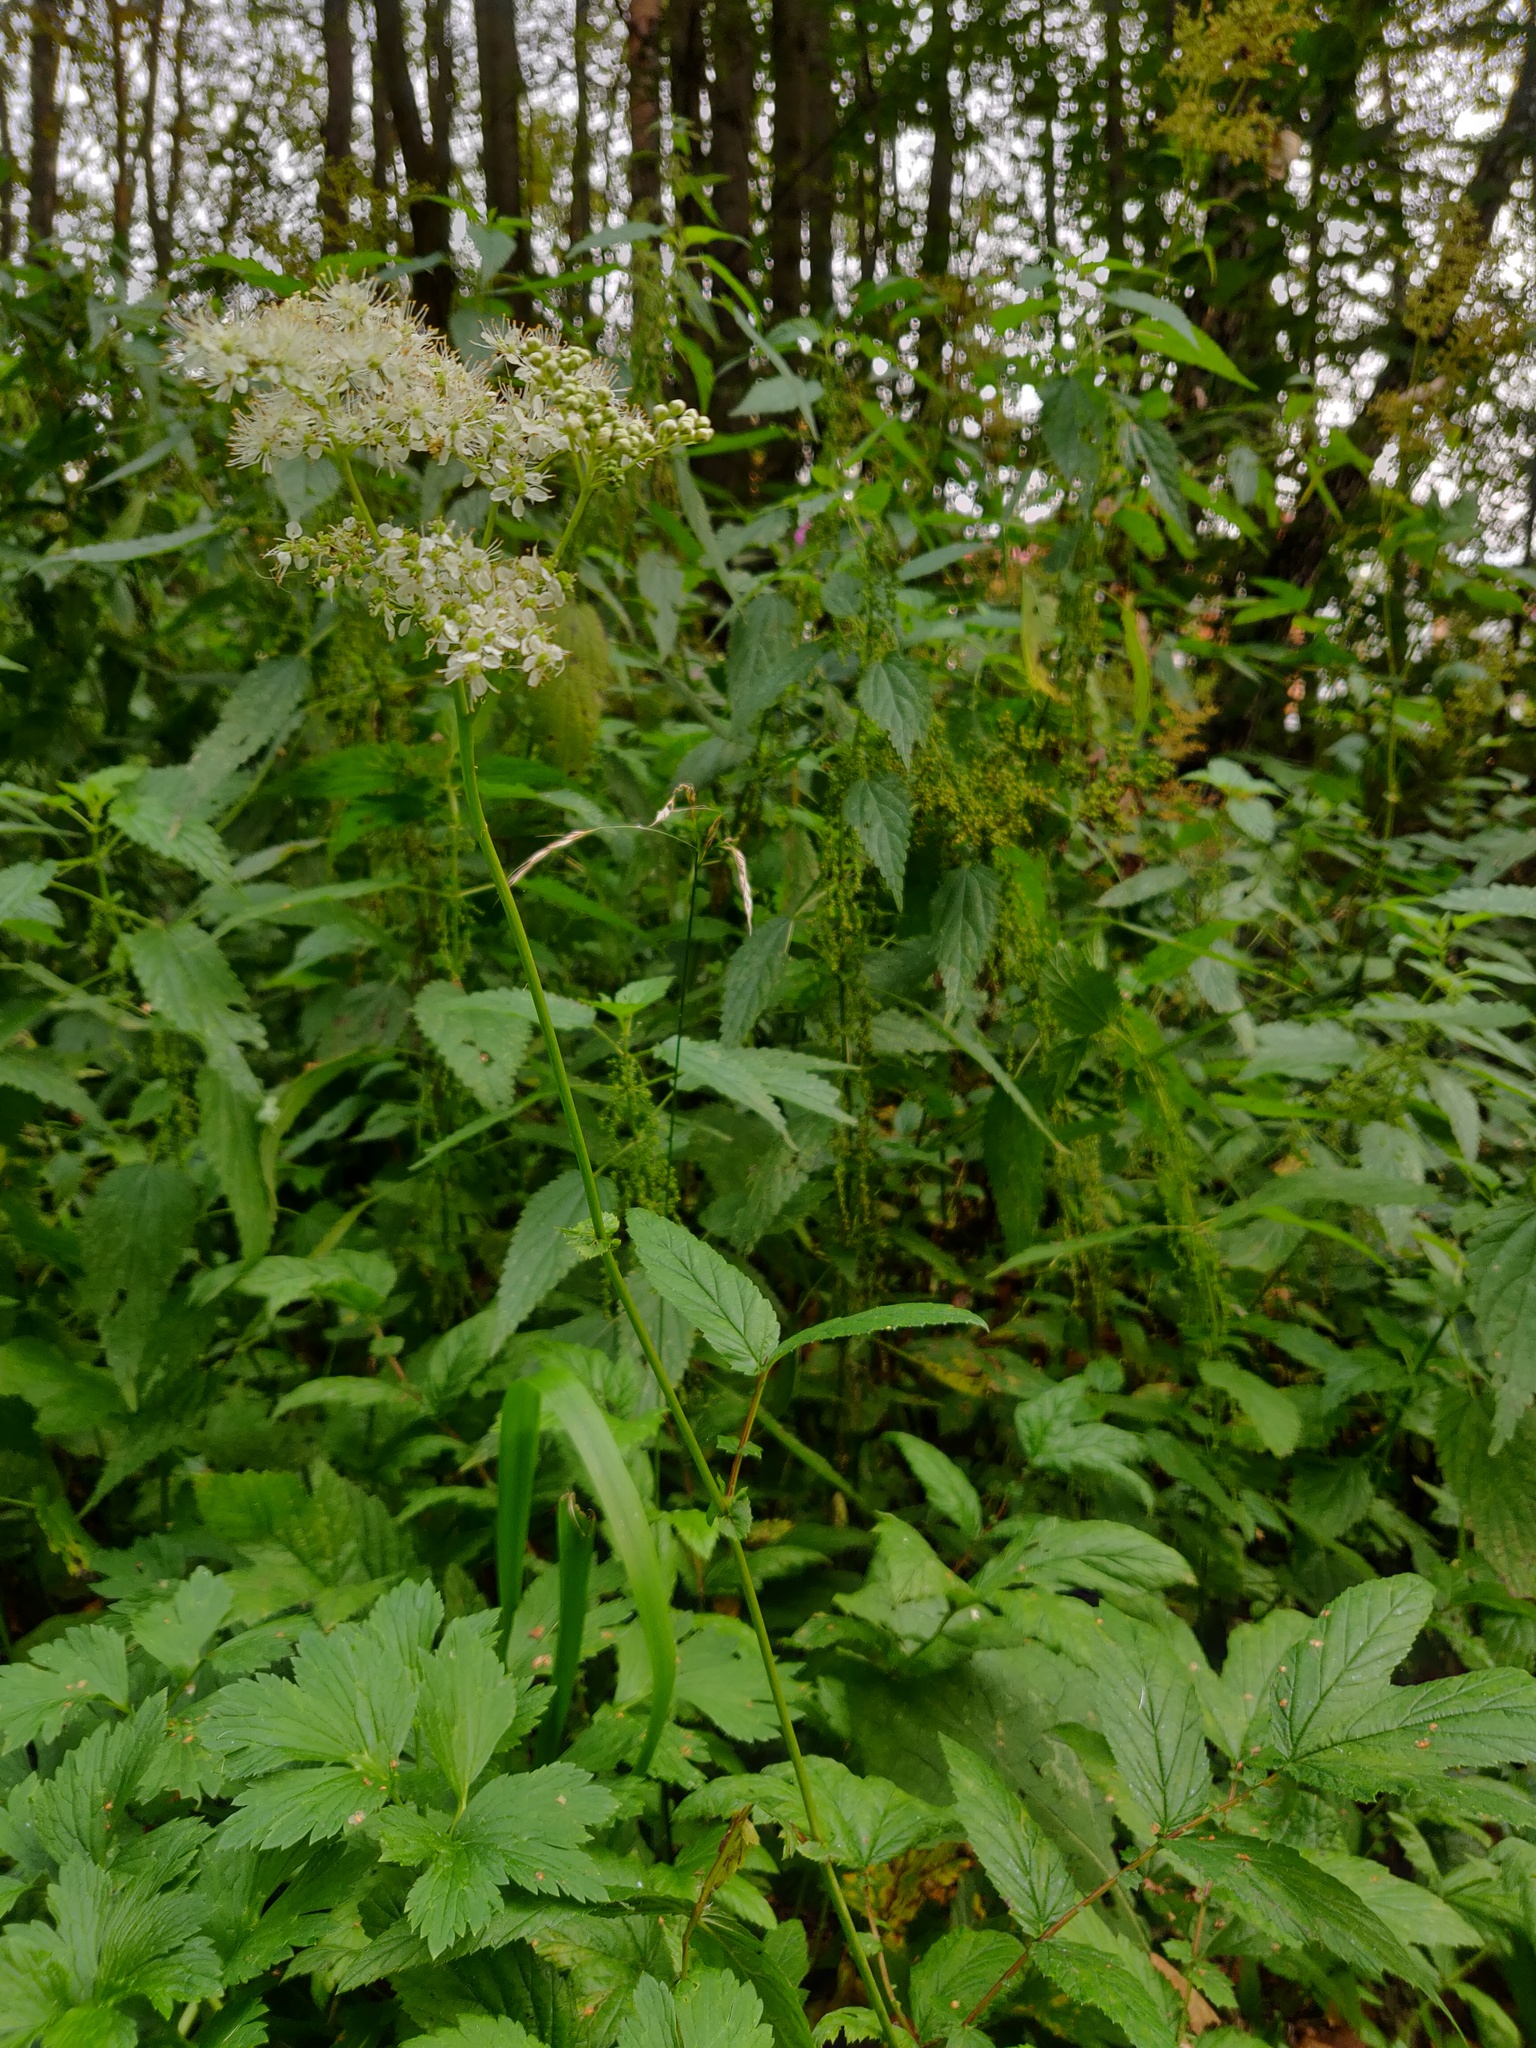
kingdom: Plantae
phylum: Tracheophyta
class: Magnoliopsida
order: Rosales
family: Rosaceae
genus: Filipendula
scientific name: Filipendula ulmaria
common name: Meadowsweet
